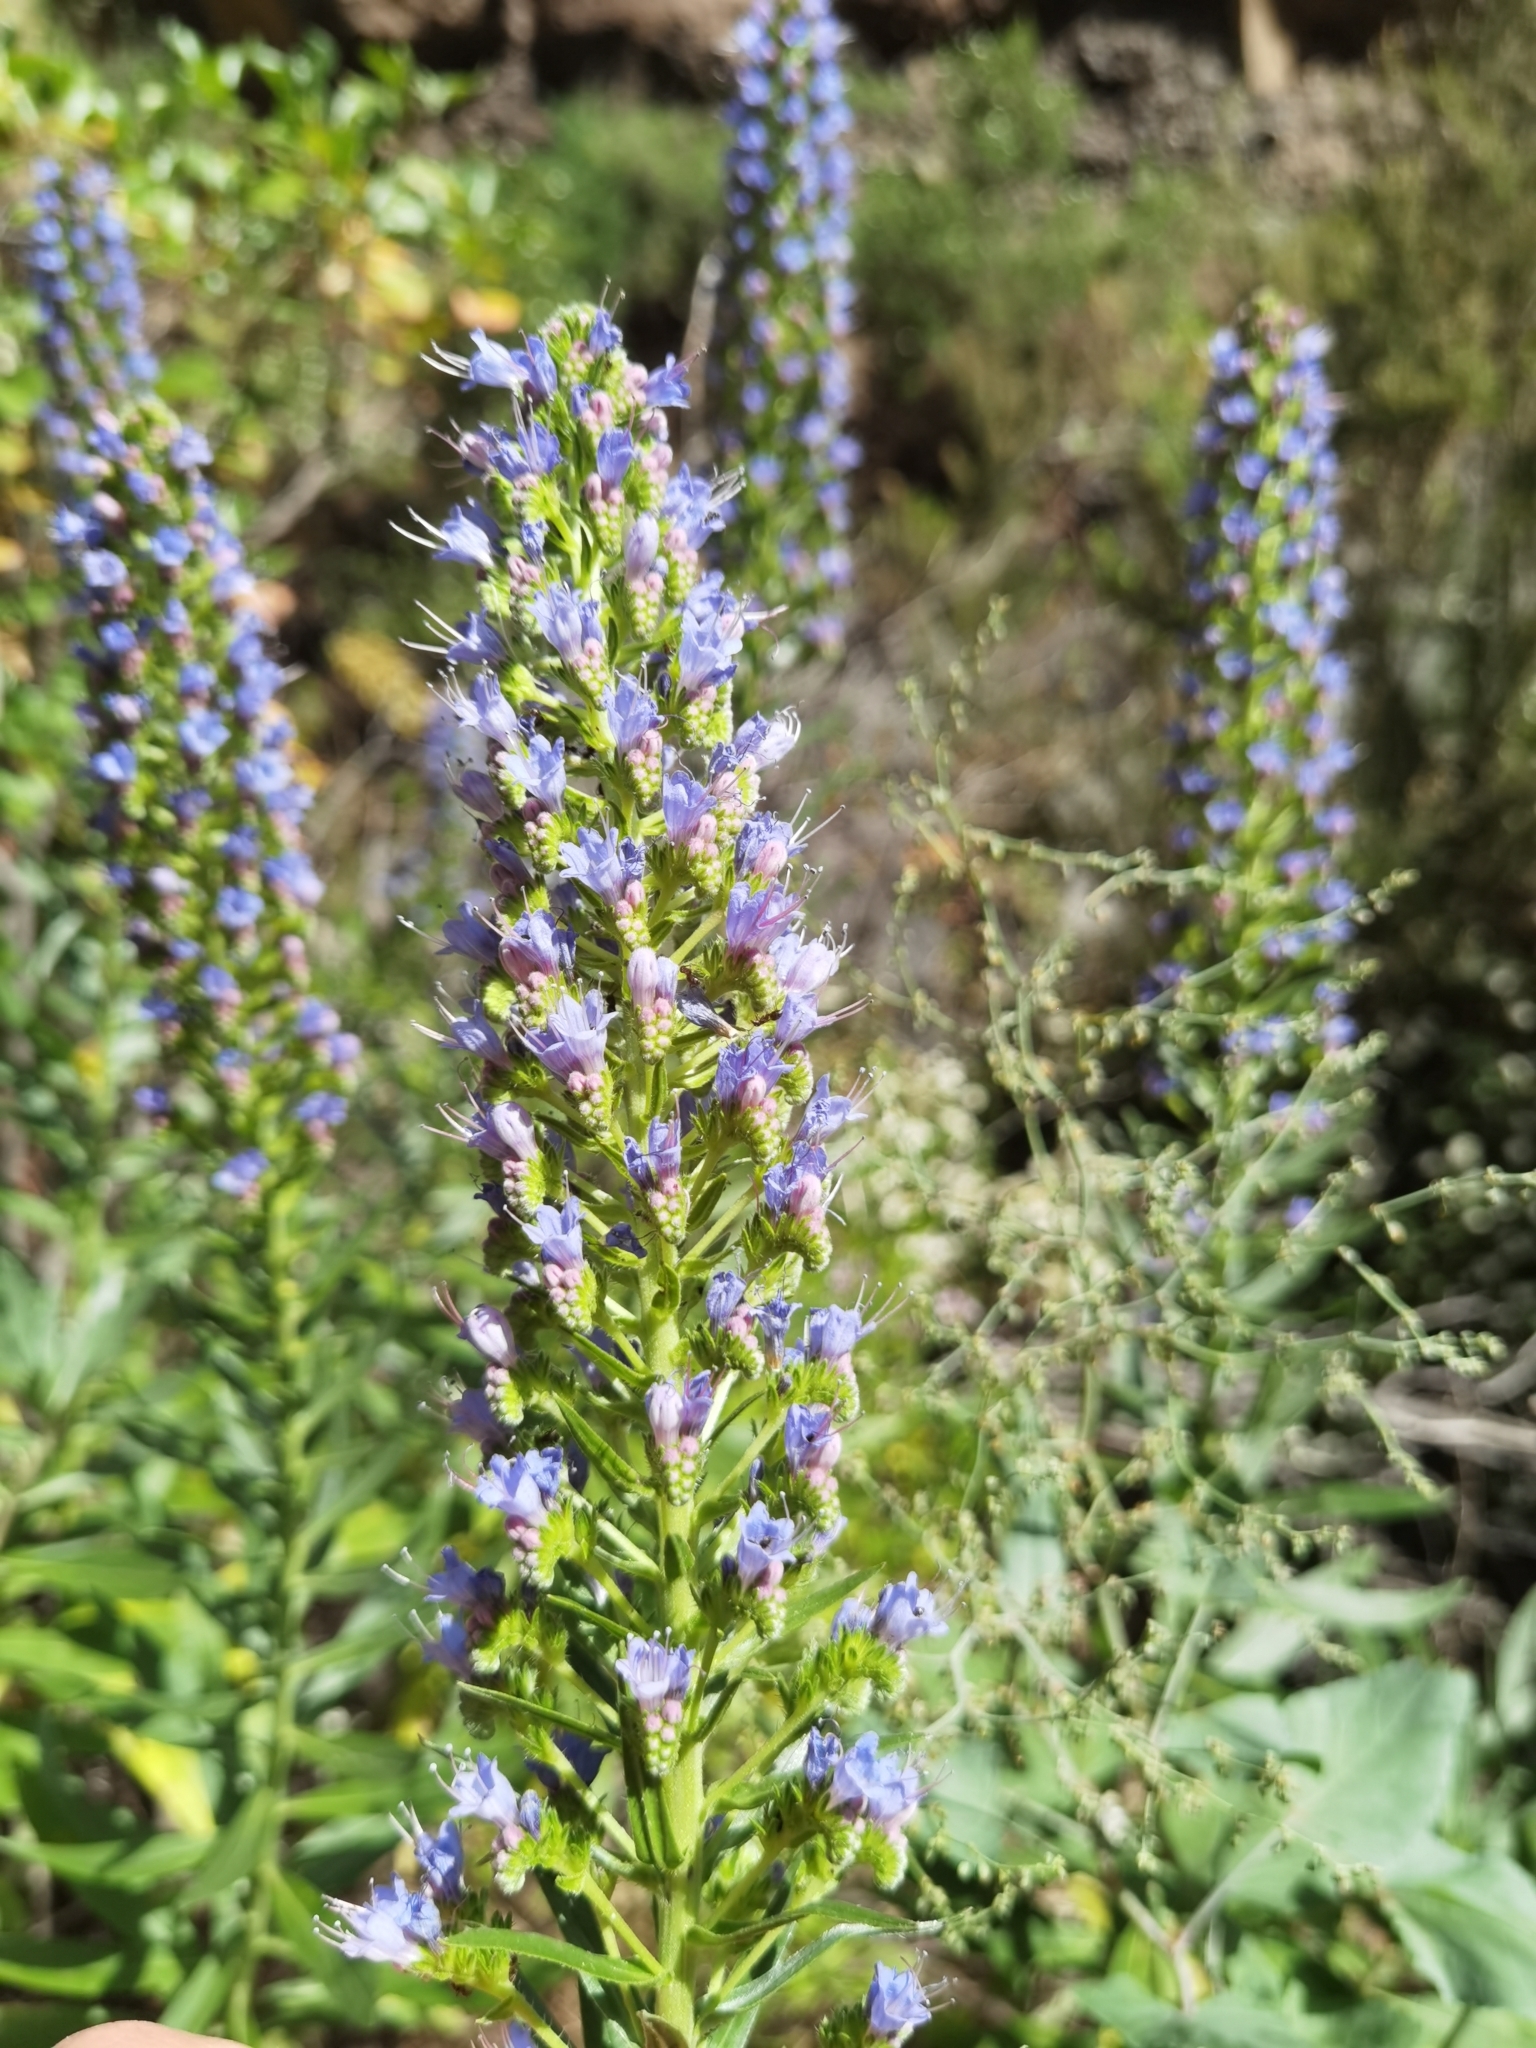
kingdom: Plantae
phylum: Tracheophyta
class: Magnoliopsida
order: Boraginales
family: Boraginaceae
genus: Echium
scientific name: Echium webbii
